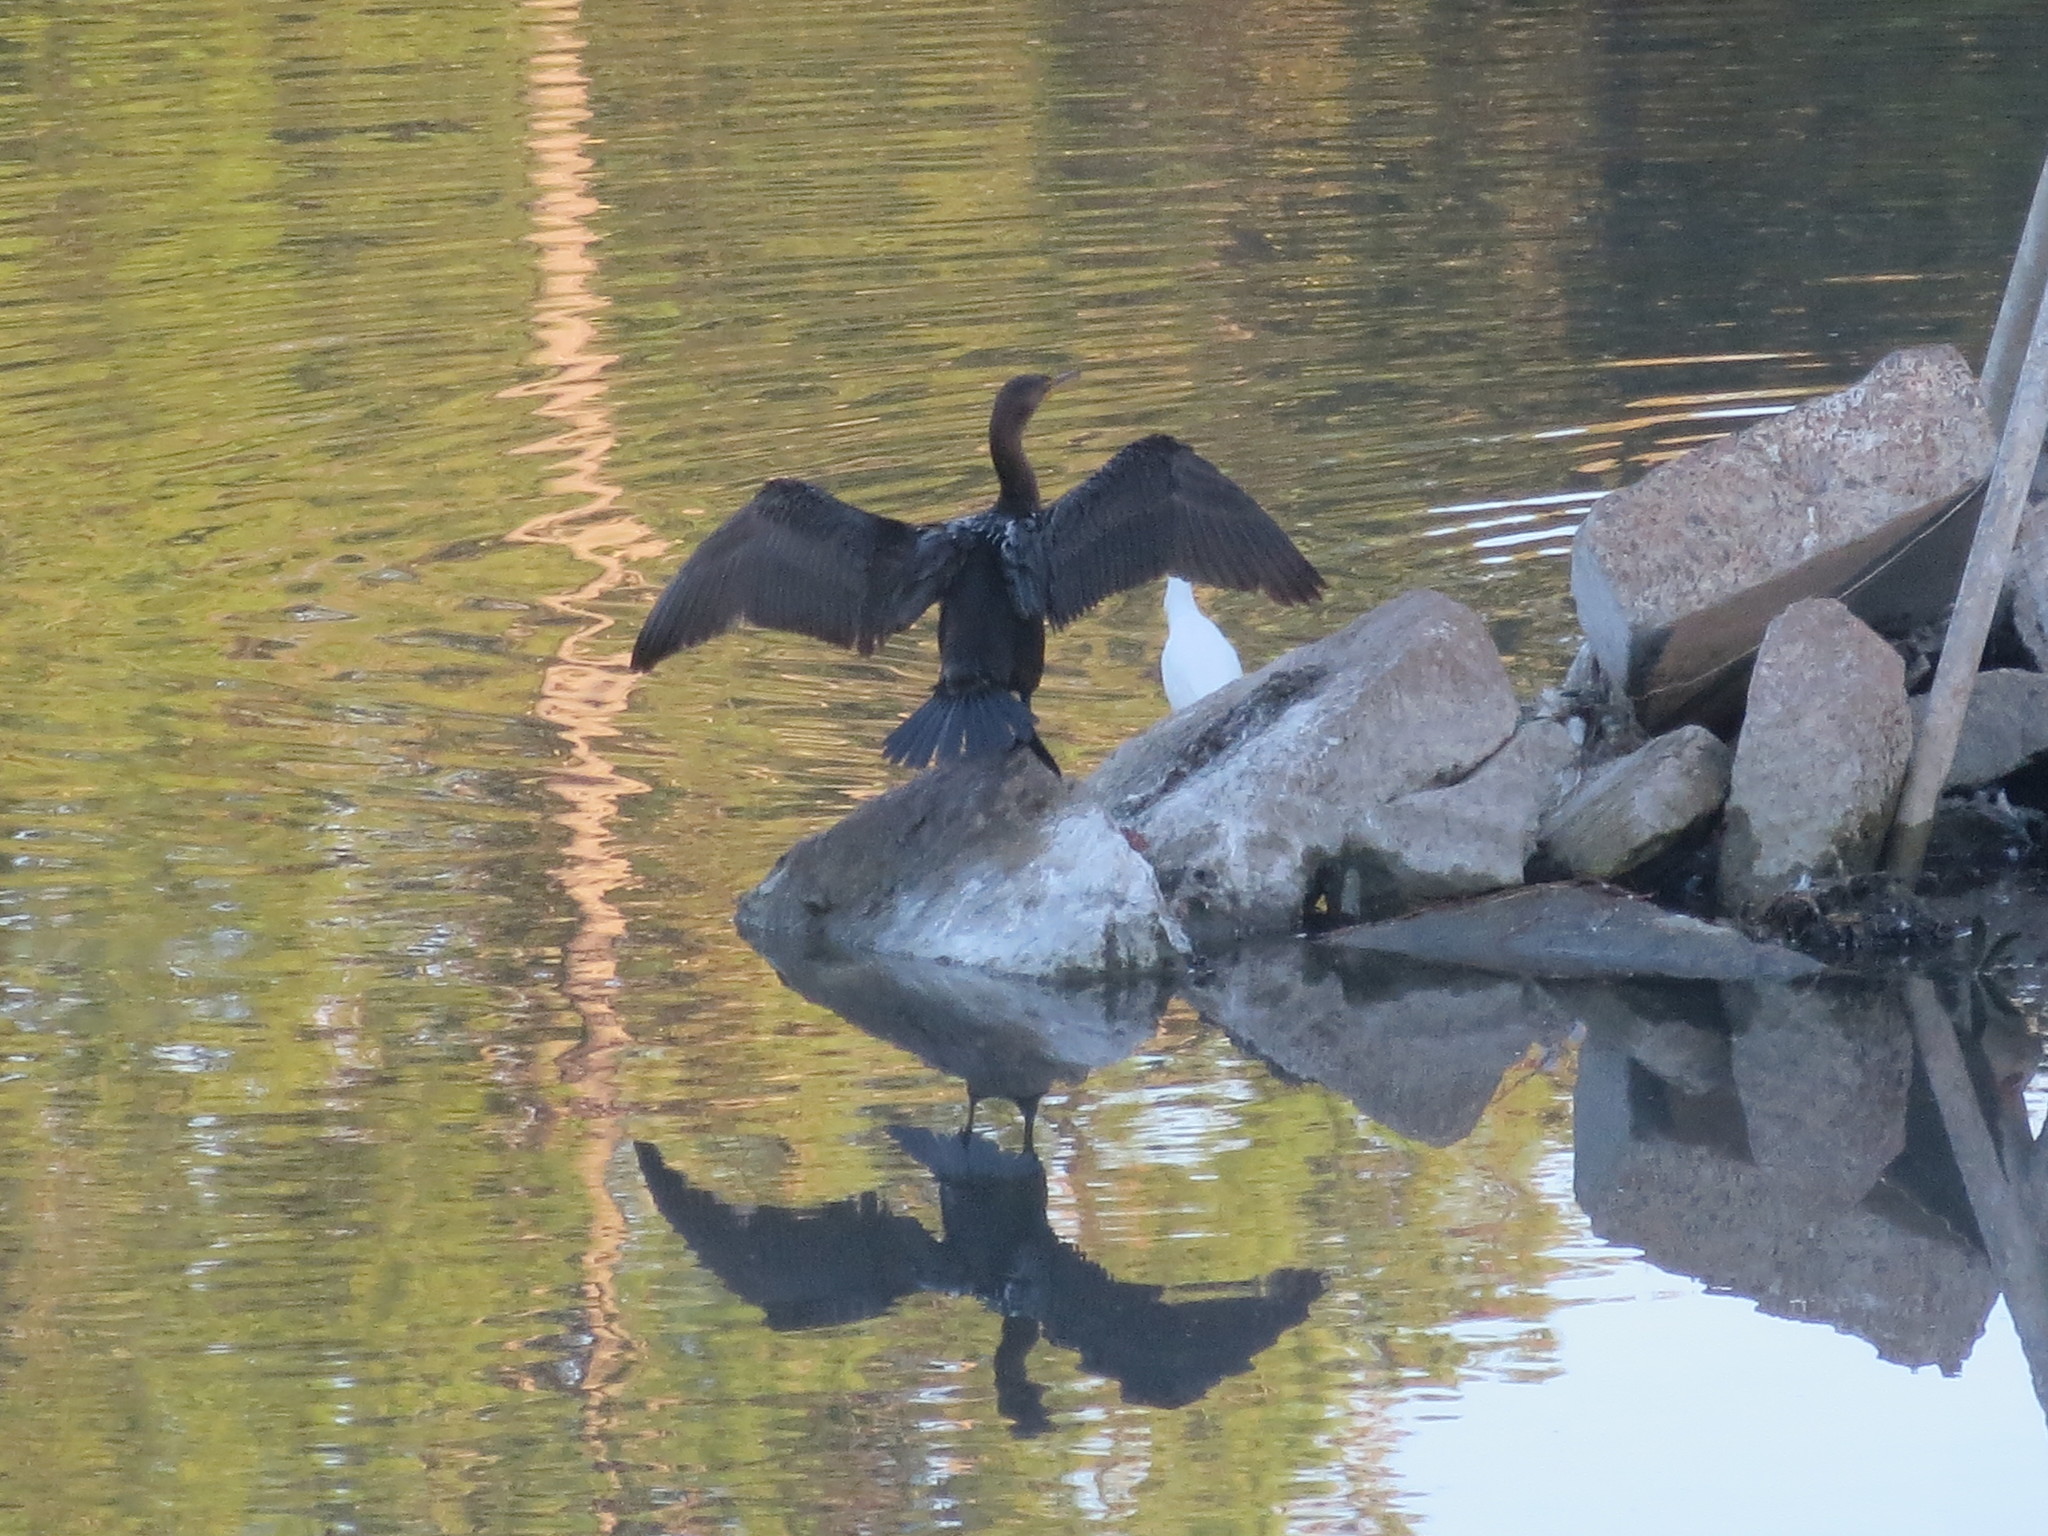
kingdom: Animalia
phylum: Chordata
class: Aves
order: Pelecaniformes
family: Ardeidae
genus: Egretta
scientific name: Egretta thula
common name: Snowy egret
